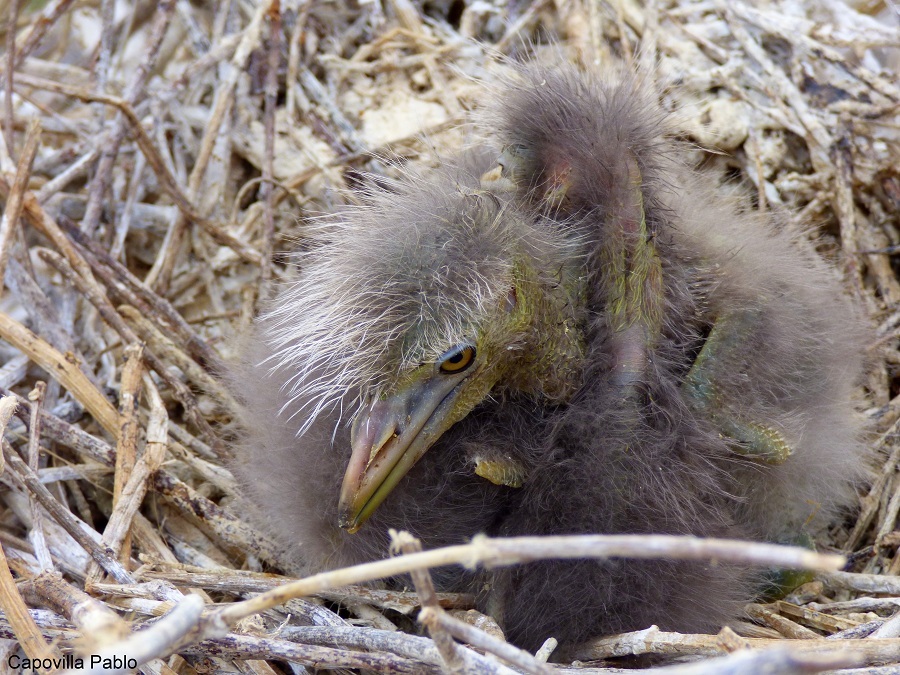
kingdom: Animalia
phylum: Chordata
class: Aves
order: Pelecaniformes
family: Ardeidae
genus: Nycticorax
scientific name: Nycticorax nycticorax
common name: Black-crowned night heron
